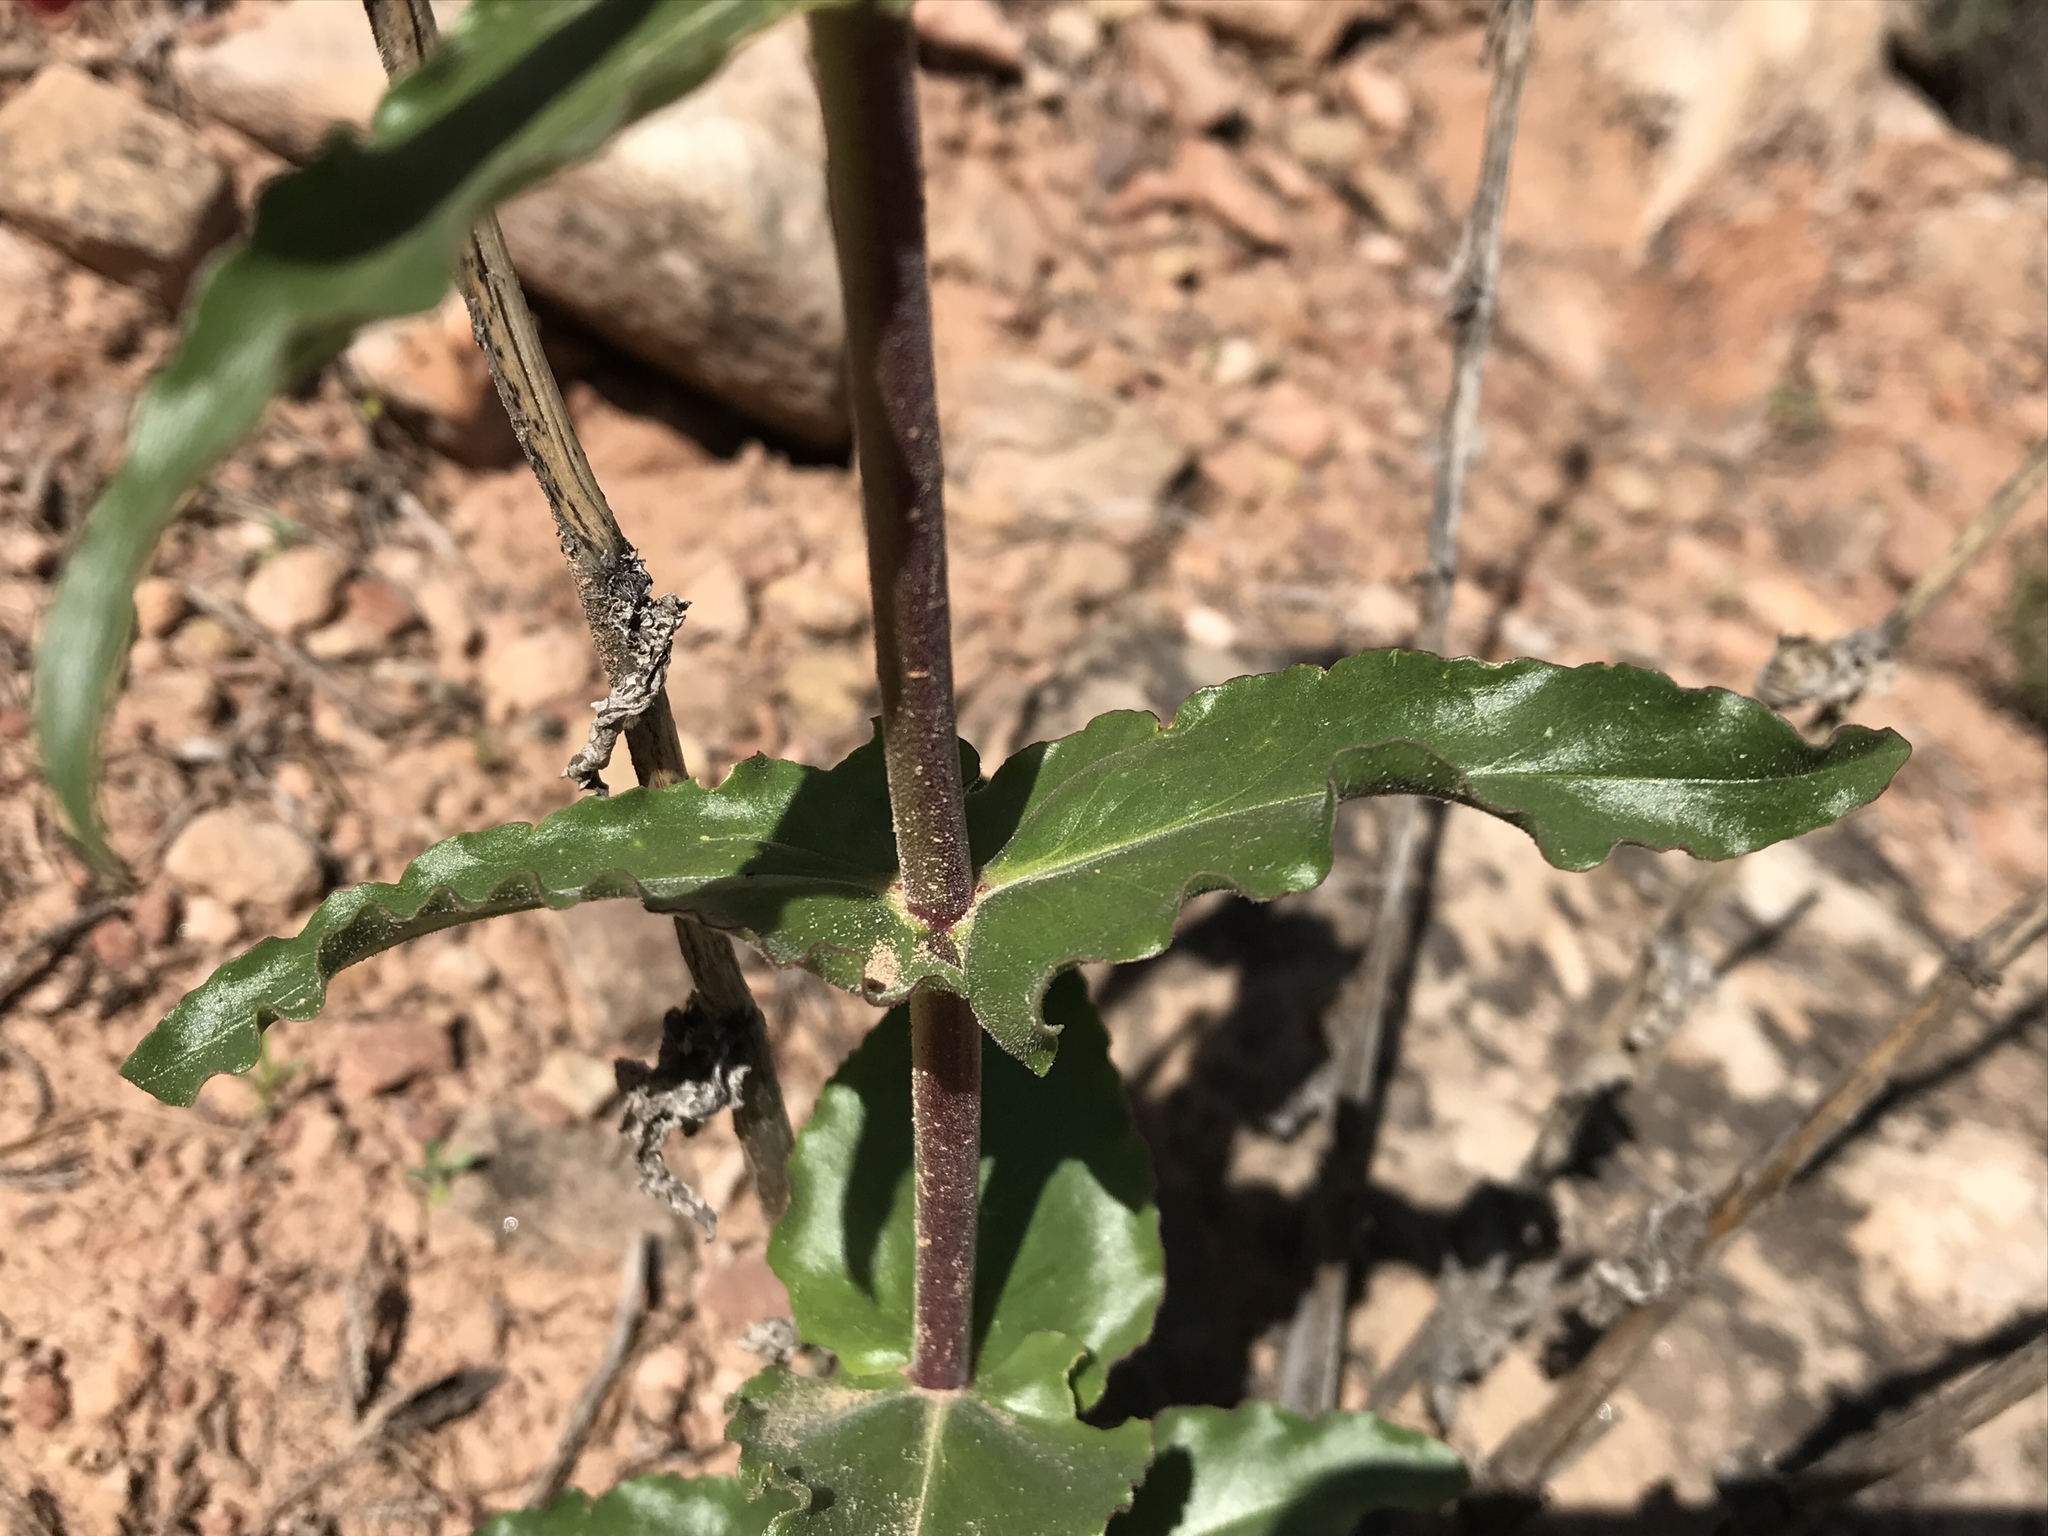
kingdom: Plantae
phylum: Tracheophyta
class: Magnoliopsida
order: Lamiales
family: Plantaginaceae
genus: Penstemon
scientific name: Penstemon eatonii
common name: Eaton's penstemon
